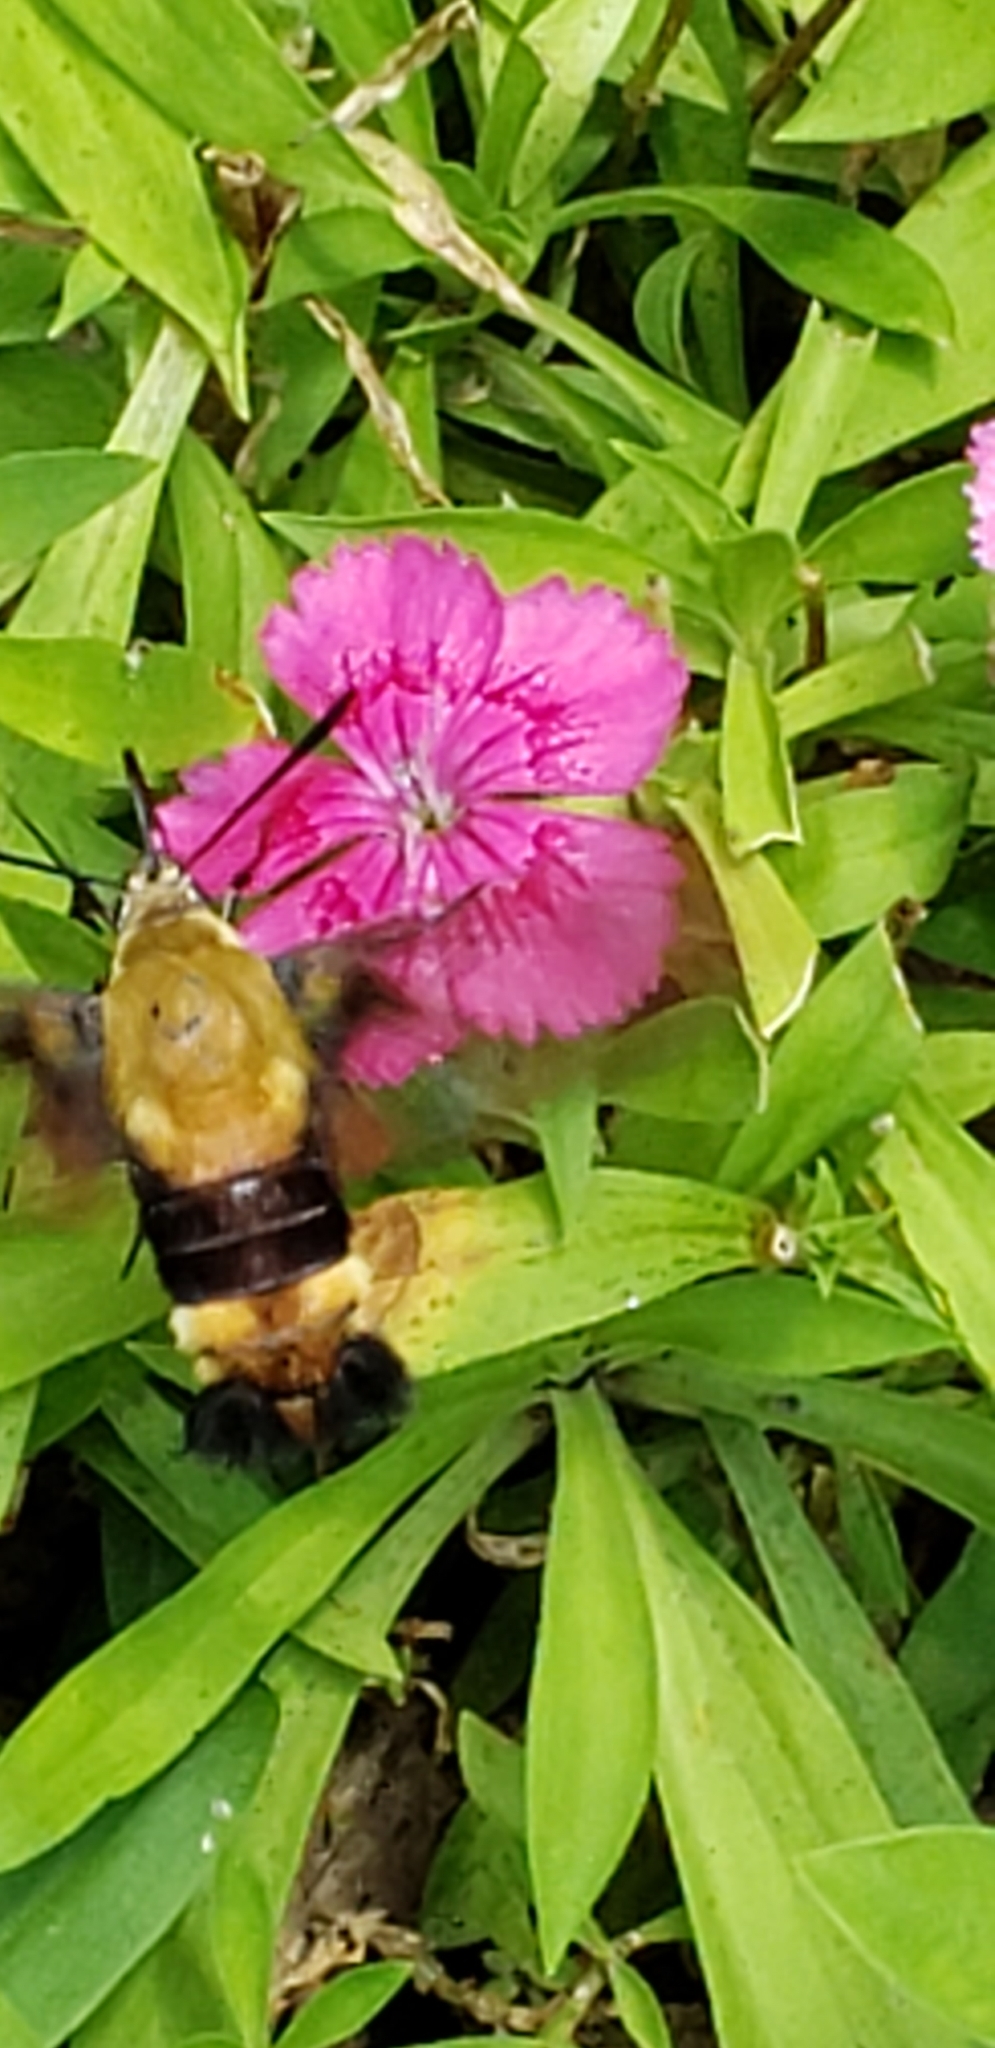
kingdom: Animalia
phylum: Arthropoda
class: Insecta
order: Lepidoptera
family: Sphingidae
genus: Hemaris
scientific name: Hemaris diffinis
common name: Bumblebee moth
